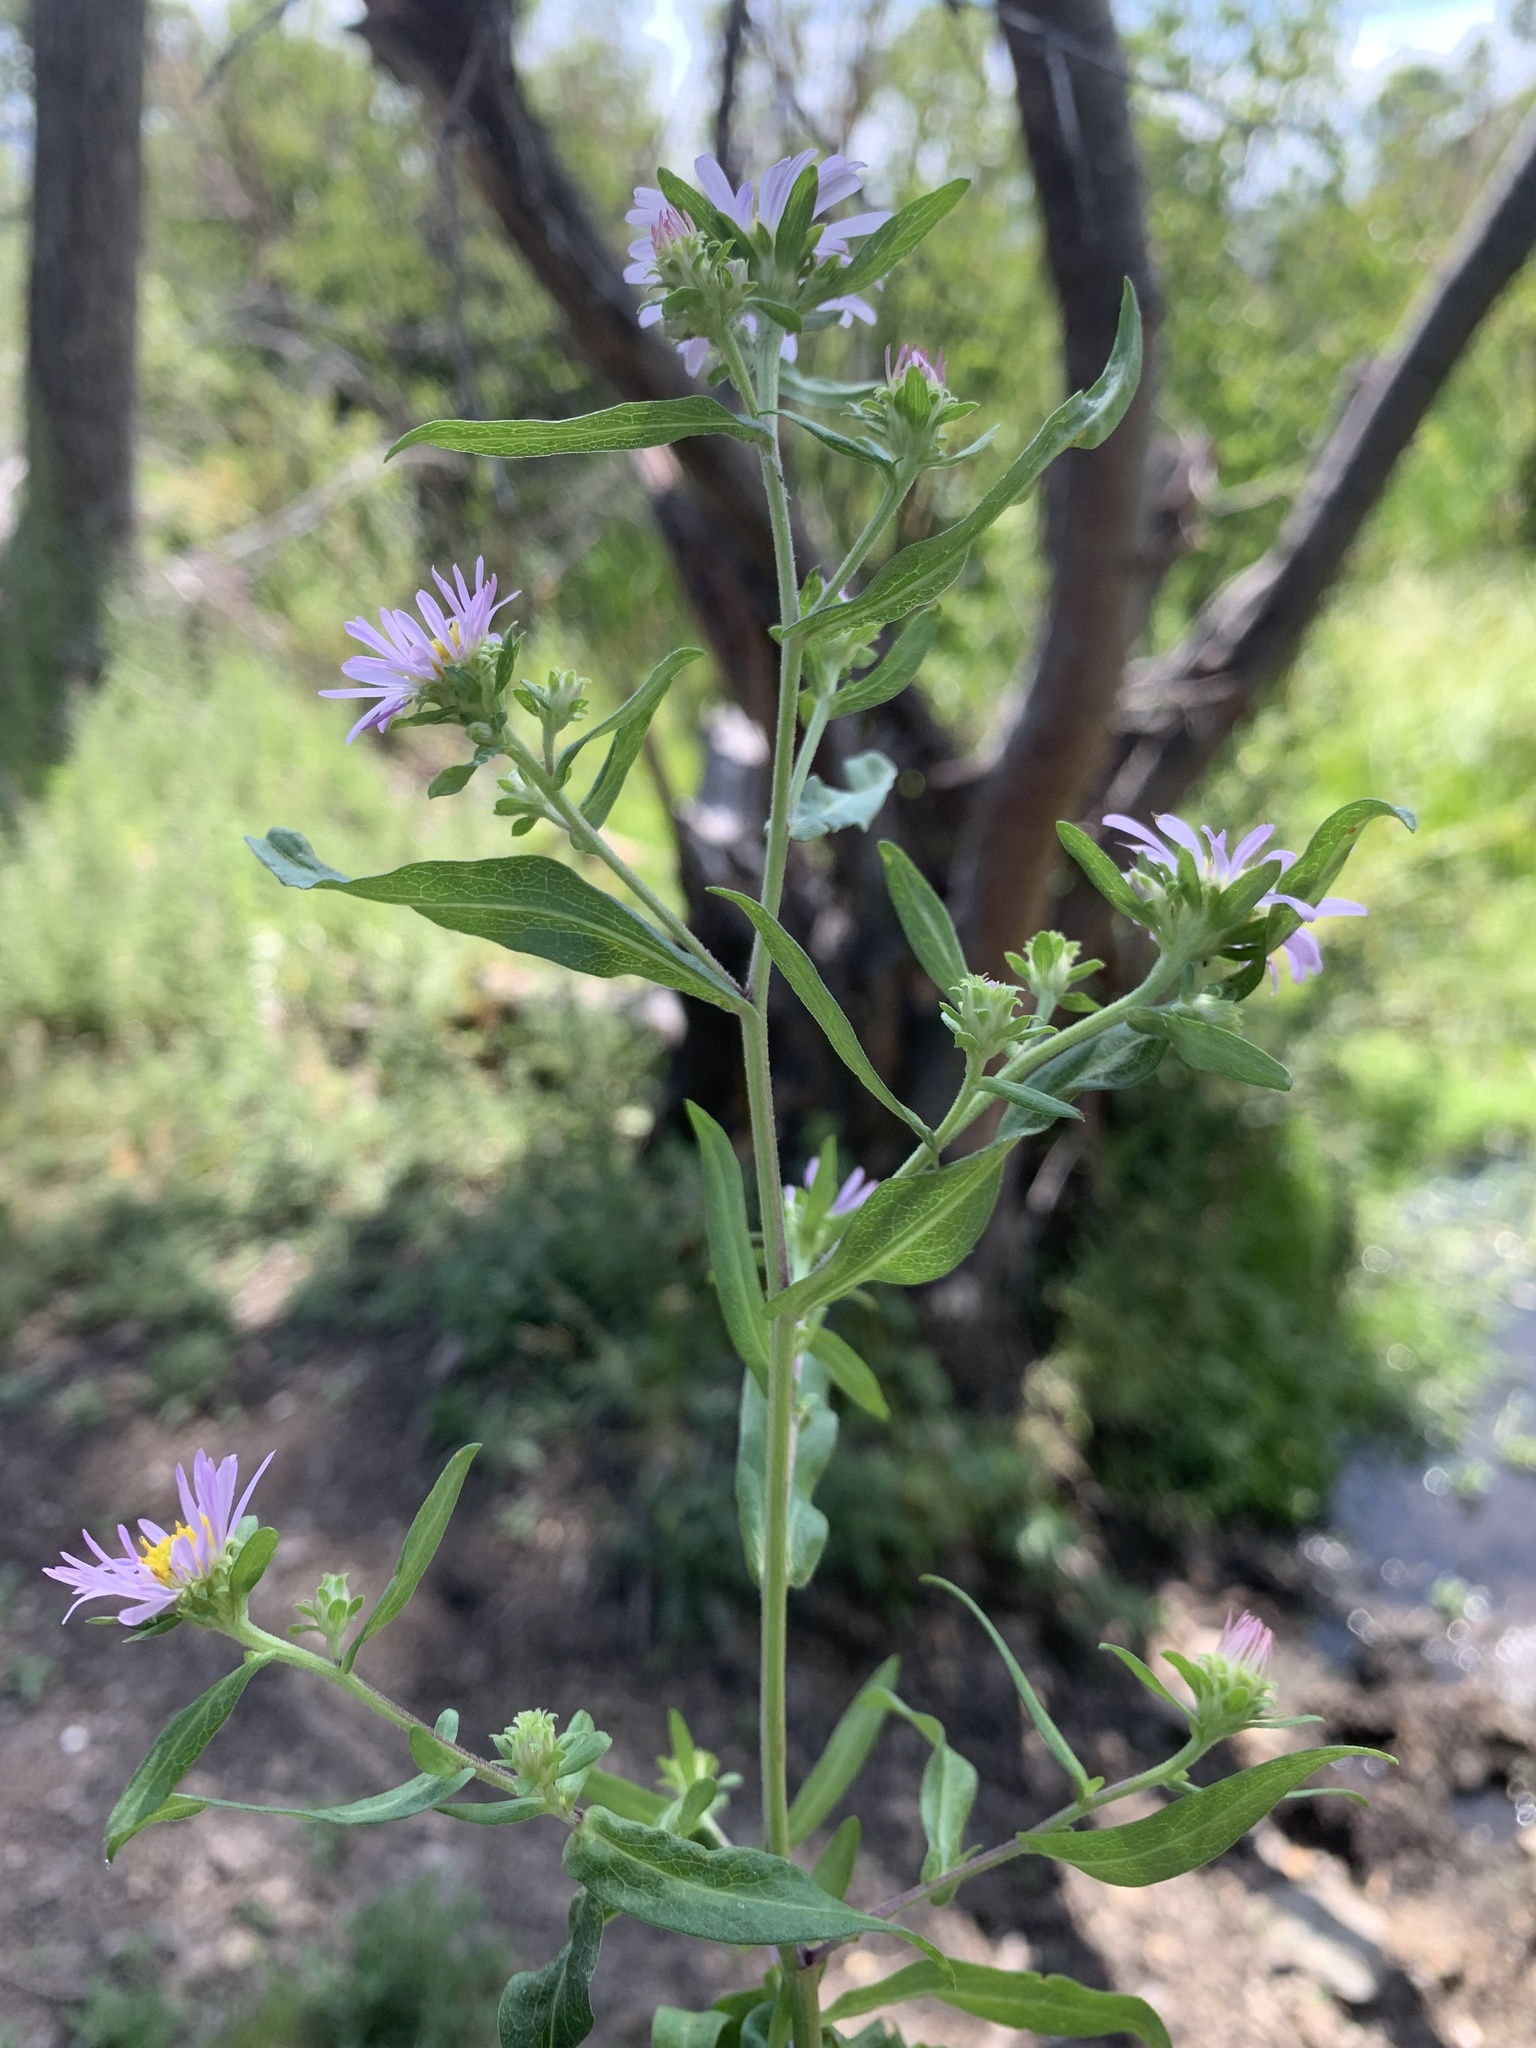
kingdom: Plantae
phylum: Tracheophyta
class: Magnoliopsida
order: Asterales
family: Asteraceae
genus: Symphyotrichum
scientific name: Symphyotrichum foliaceum
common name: Leafy aster
